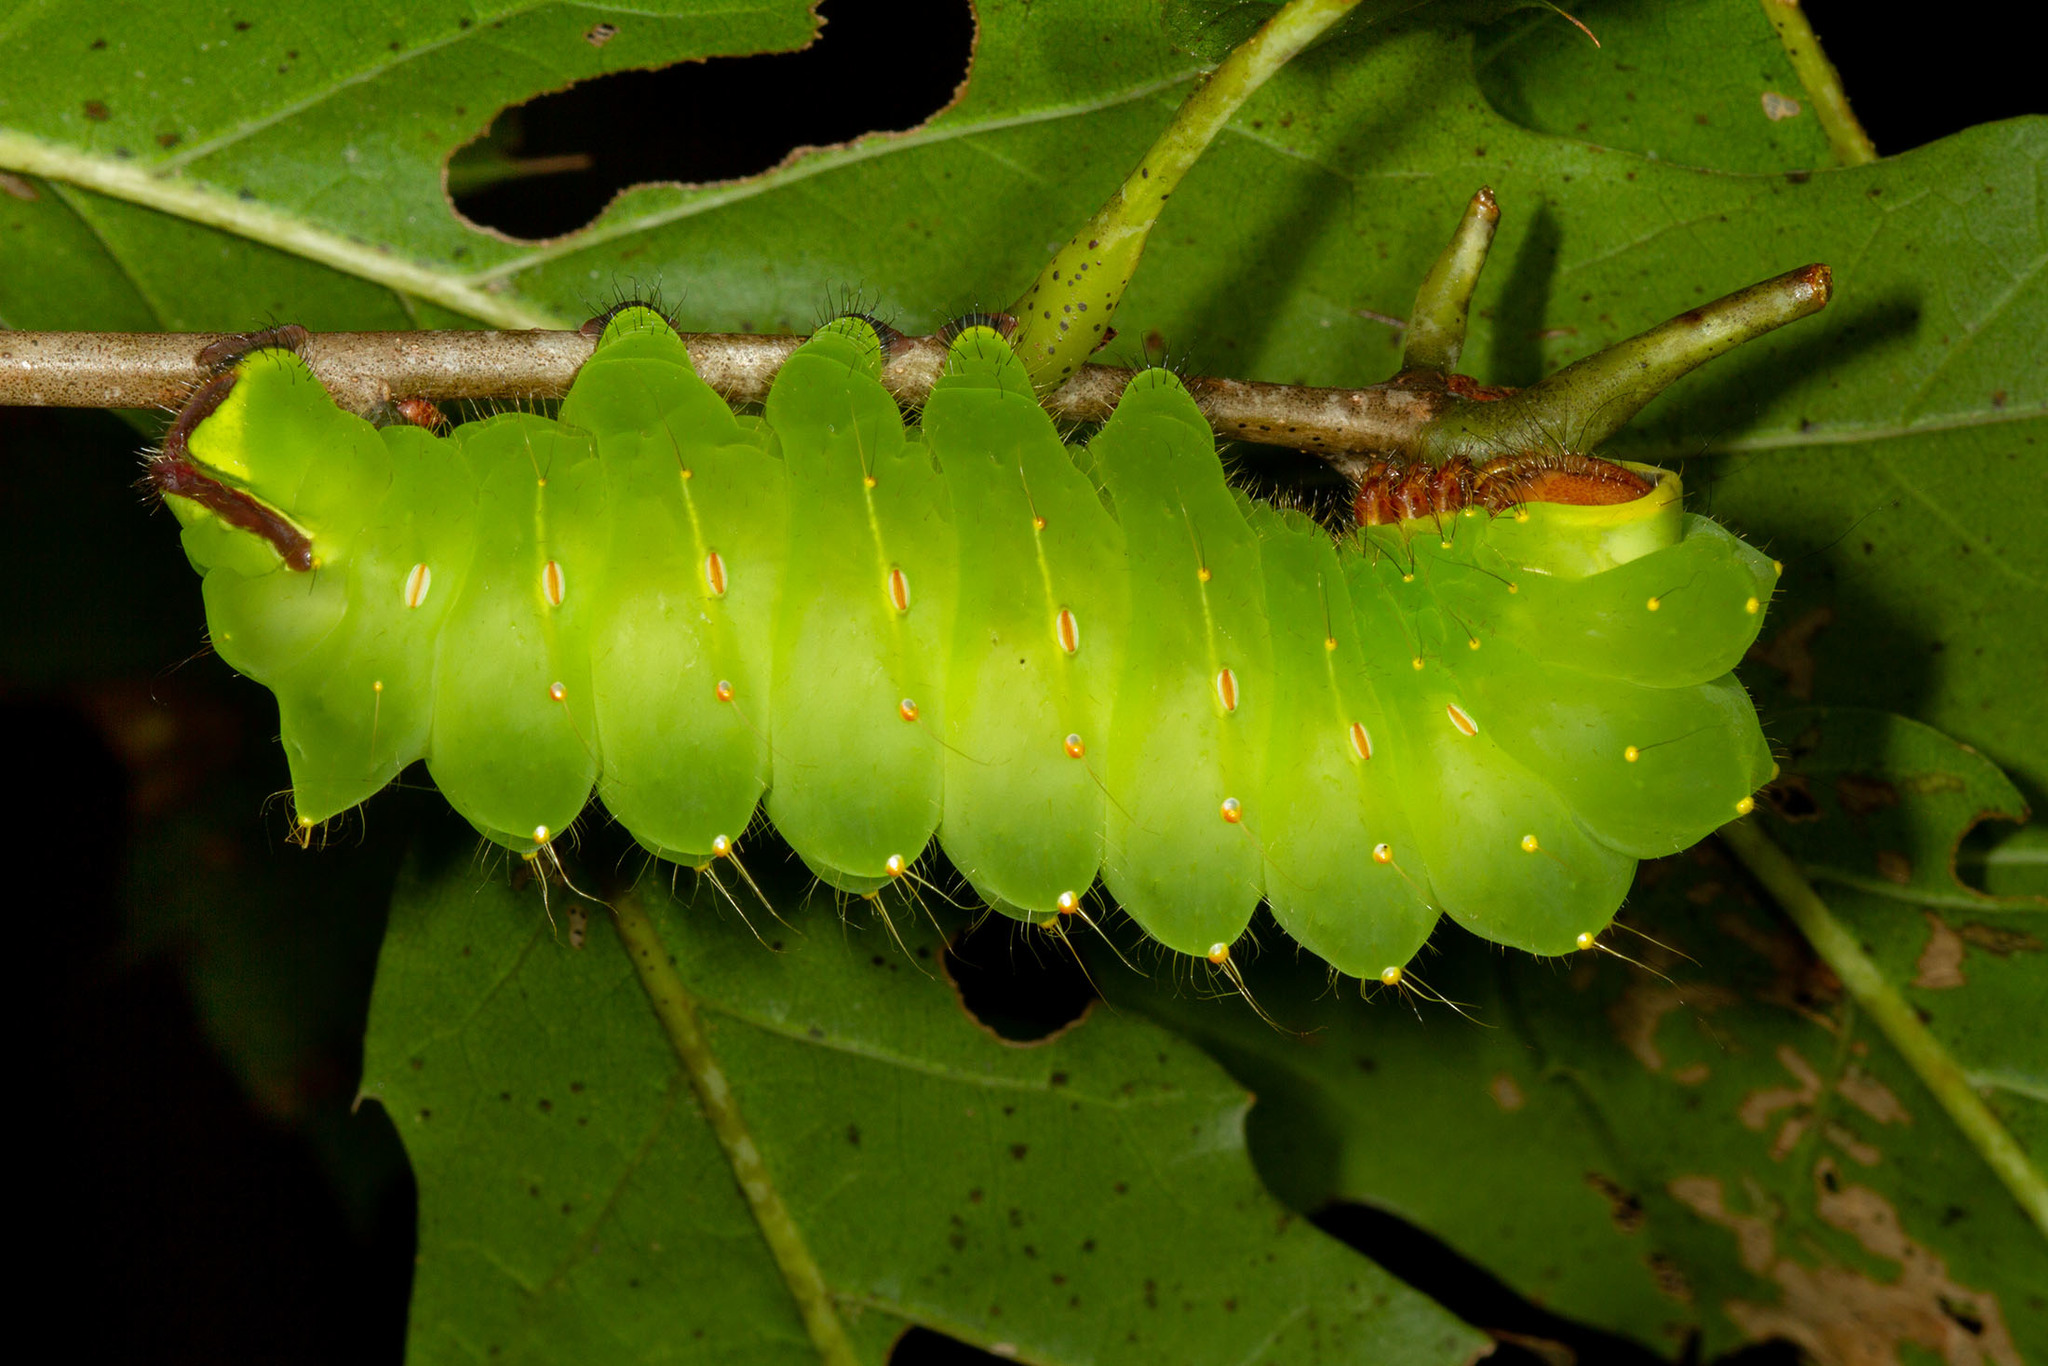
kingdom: Animalia
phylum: Arthropoda
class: Insecta
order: Lepidoptera
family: Saturniidae
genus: Antheraea
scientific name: Antheraea polyphemus
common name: Polyphemus moth
